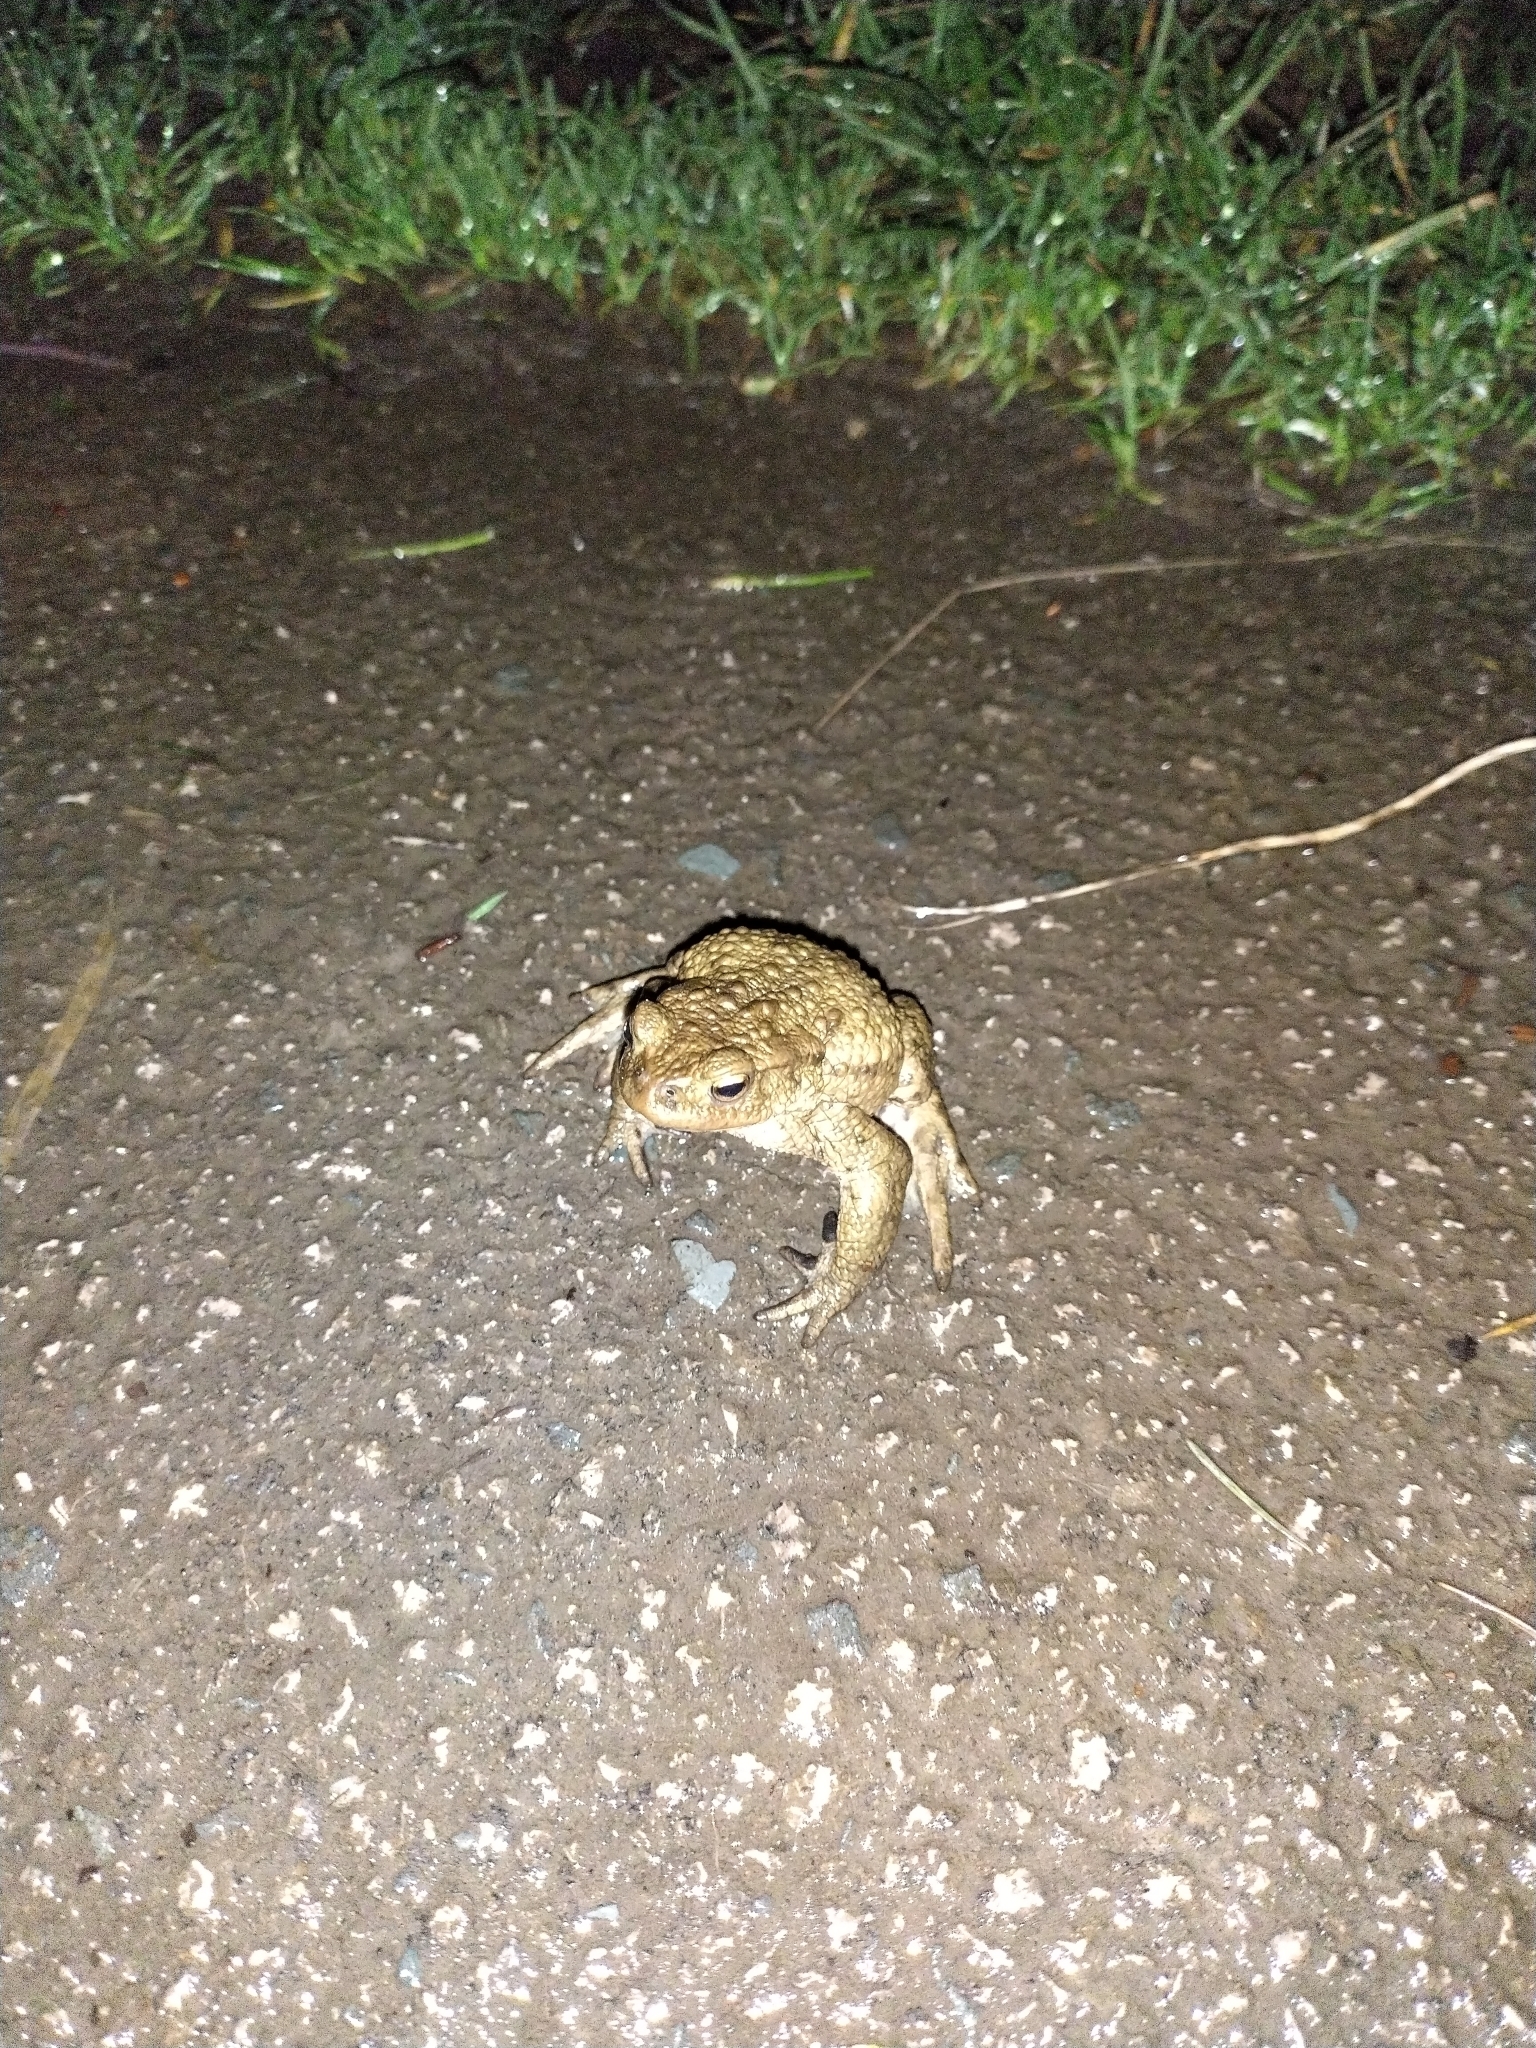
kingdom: Animalia
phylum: Chordata
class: Amphibia
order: Anura
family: Bufonidae
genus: Bufo
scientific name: Bufo bufo
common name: Common toad
